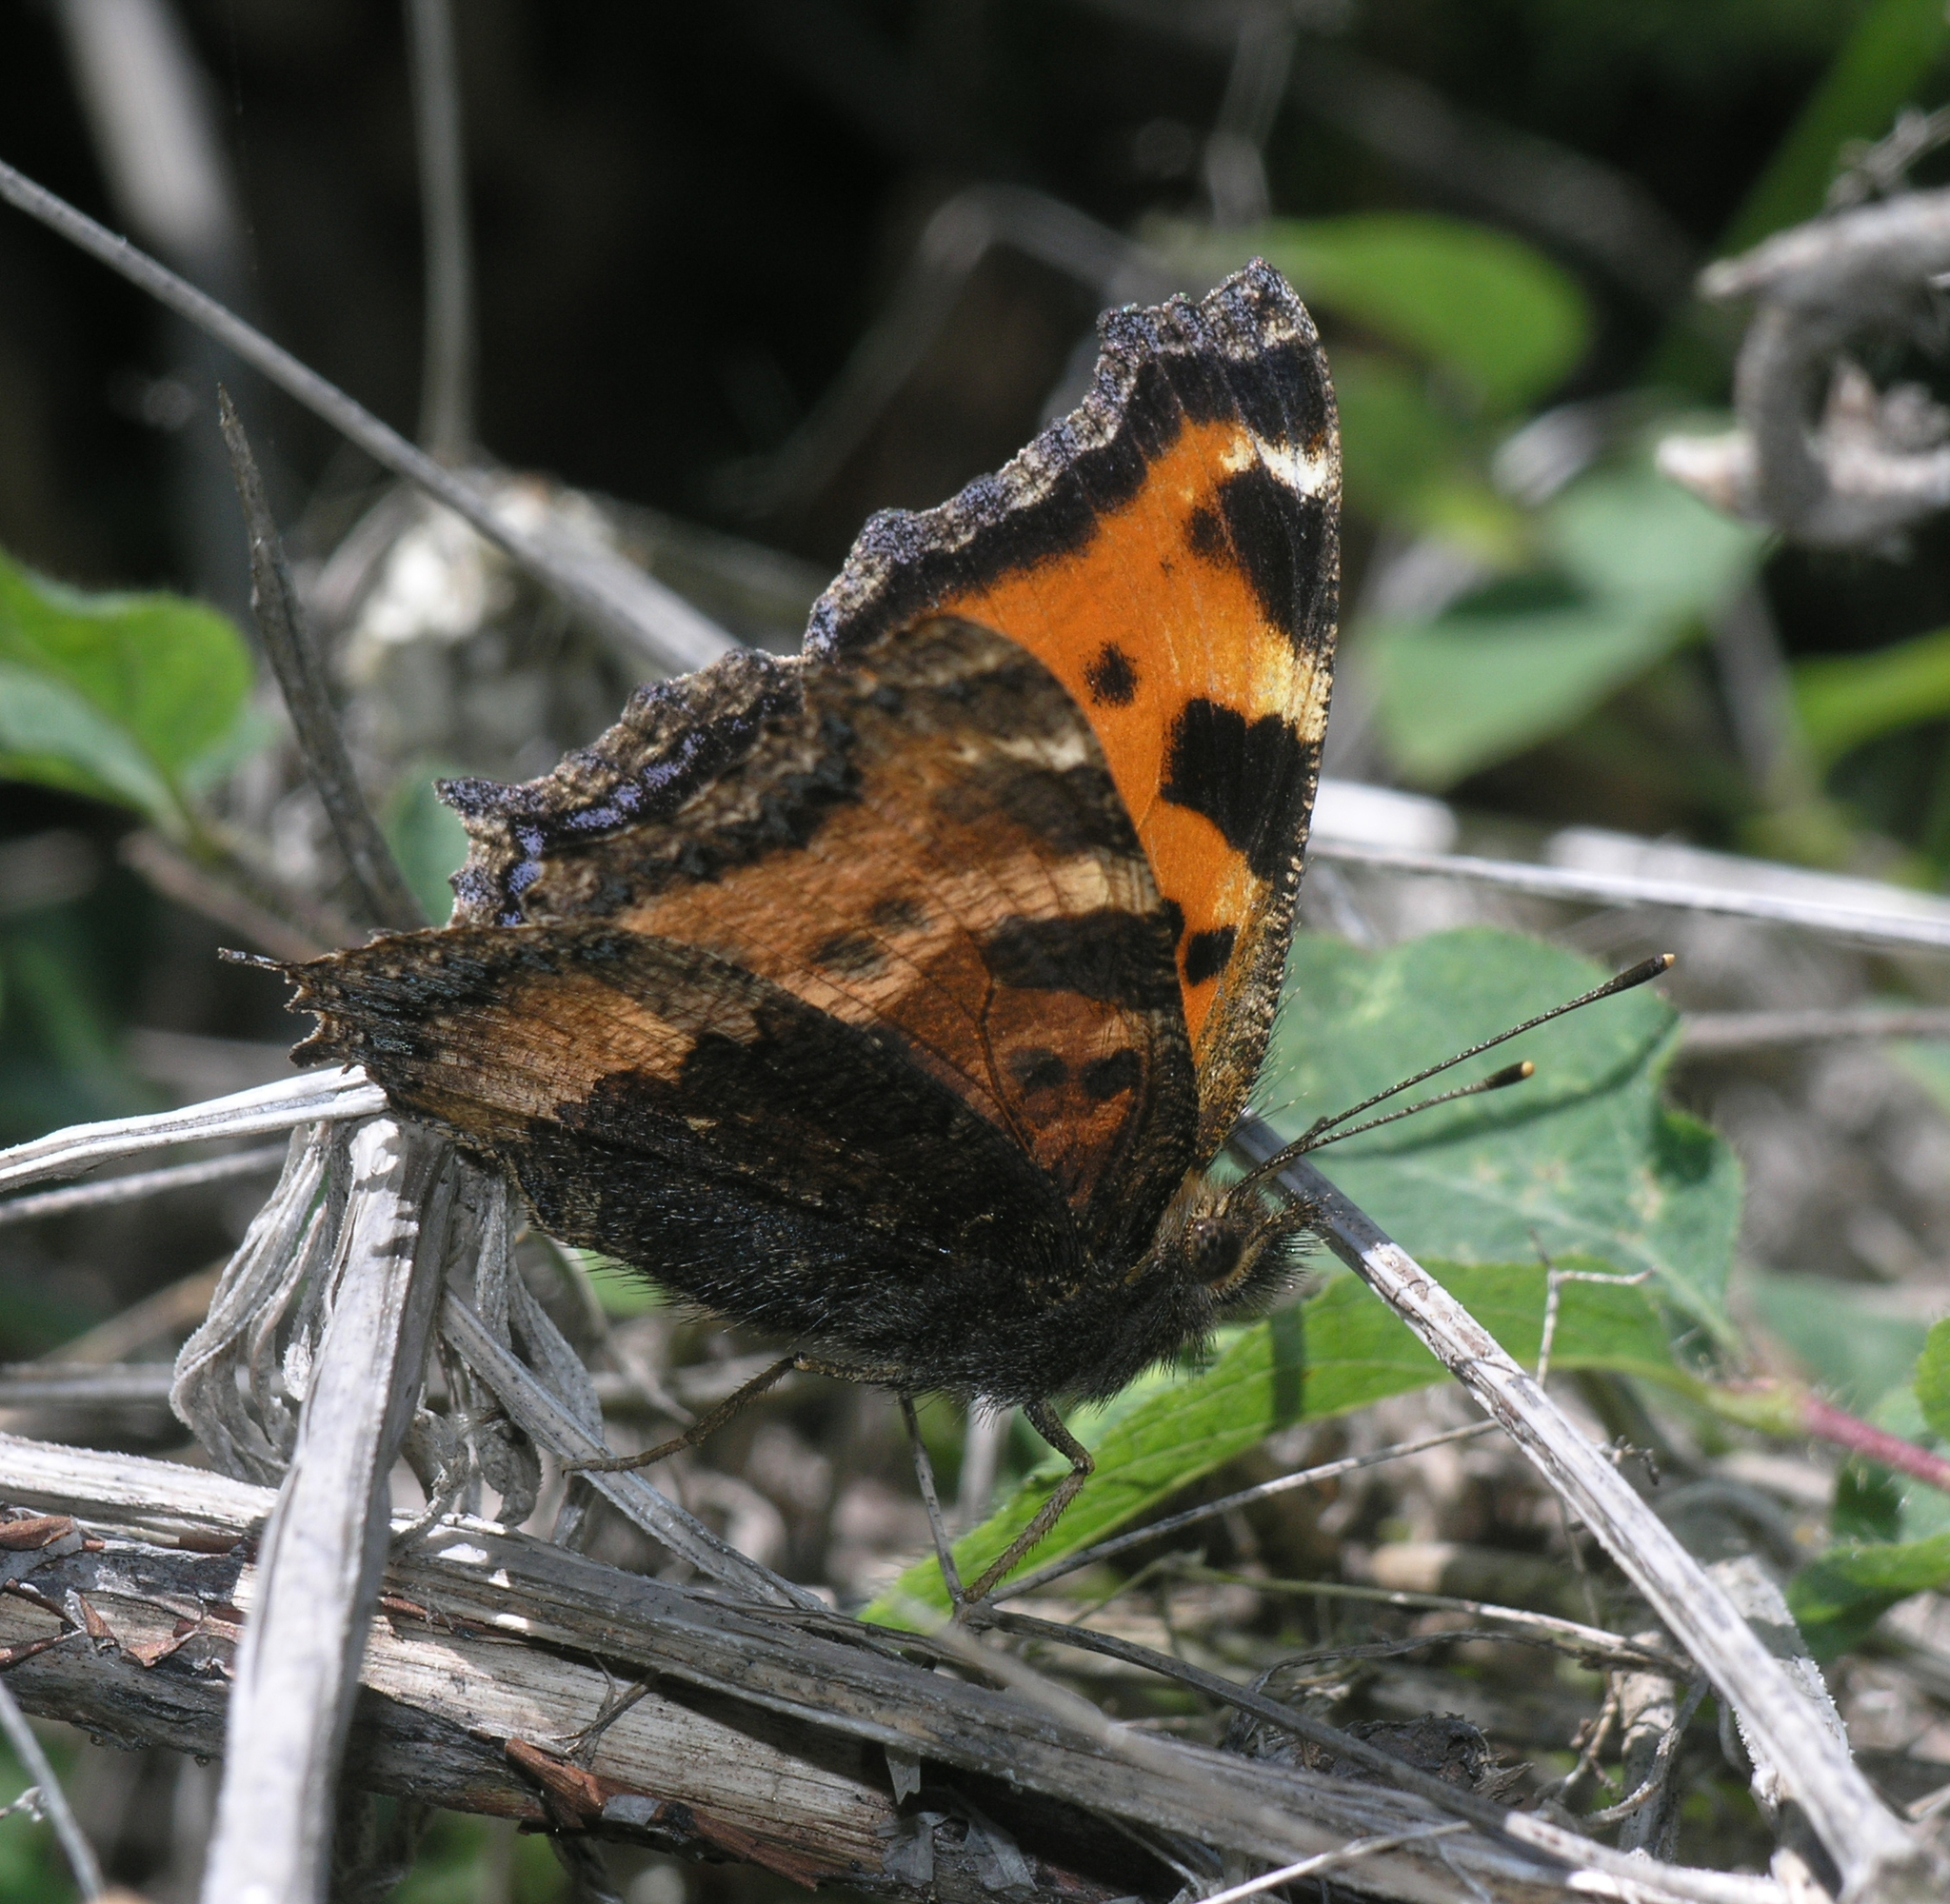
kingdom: Animalia
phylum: Arthropoda
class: Insecta
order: Lepidoptera
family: Nymphalidae
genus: Nymphalis
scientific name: Nymphalis xanthomelas
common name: Scarce tortoiseshell
